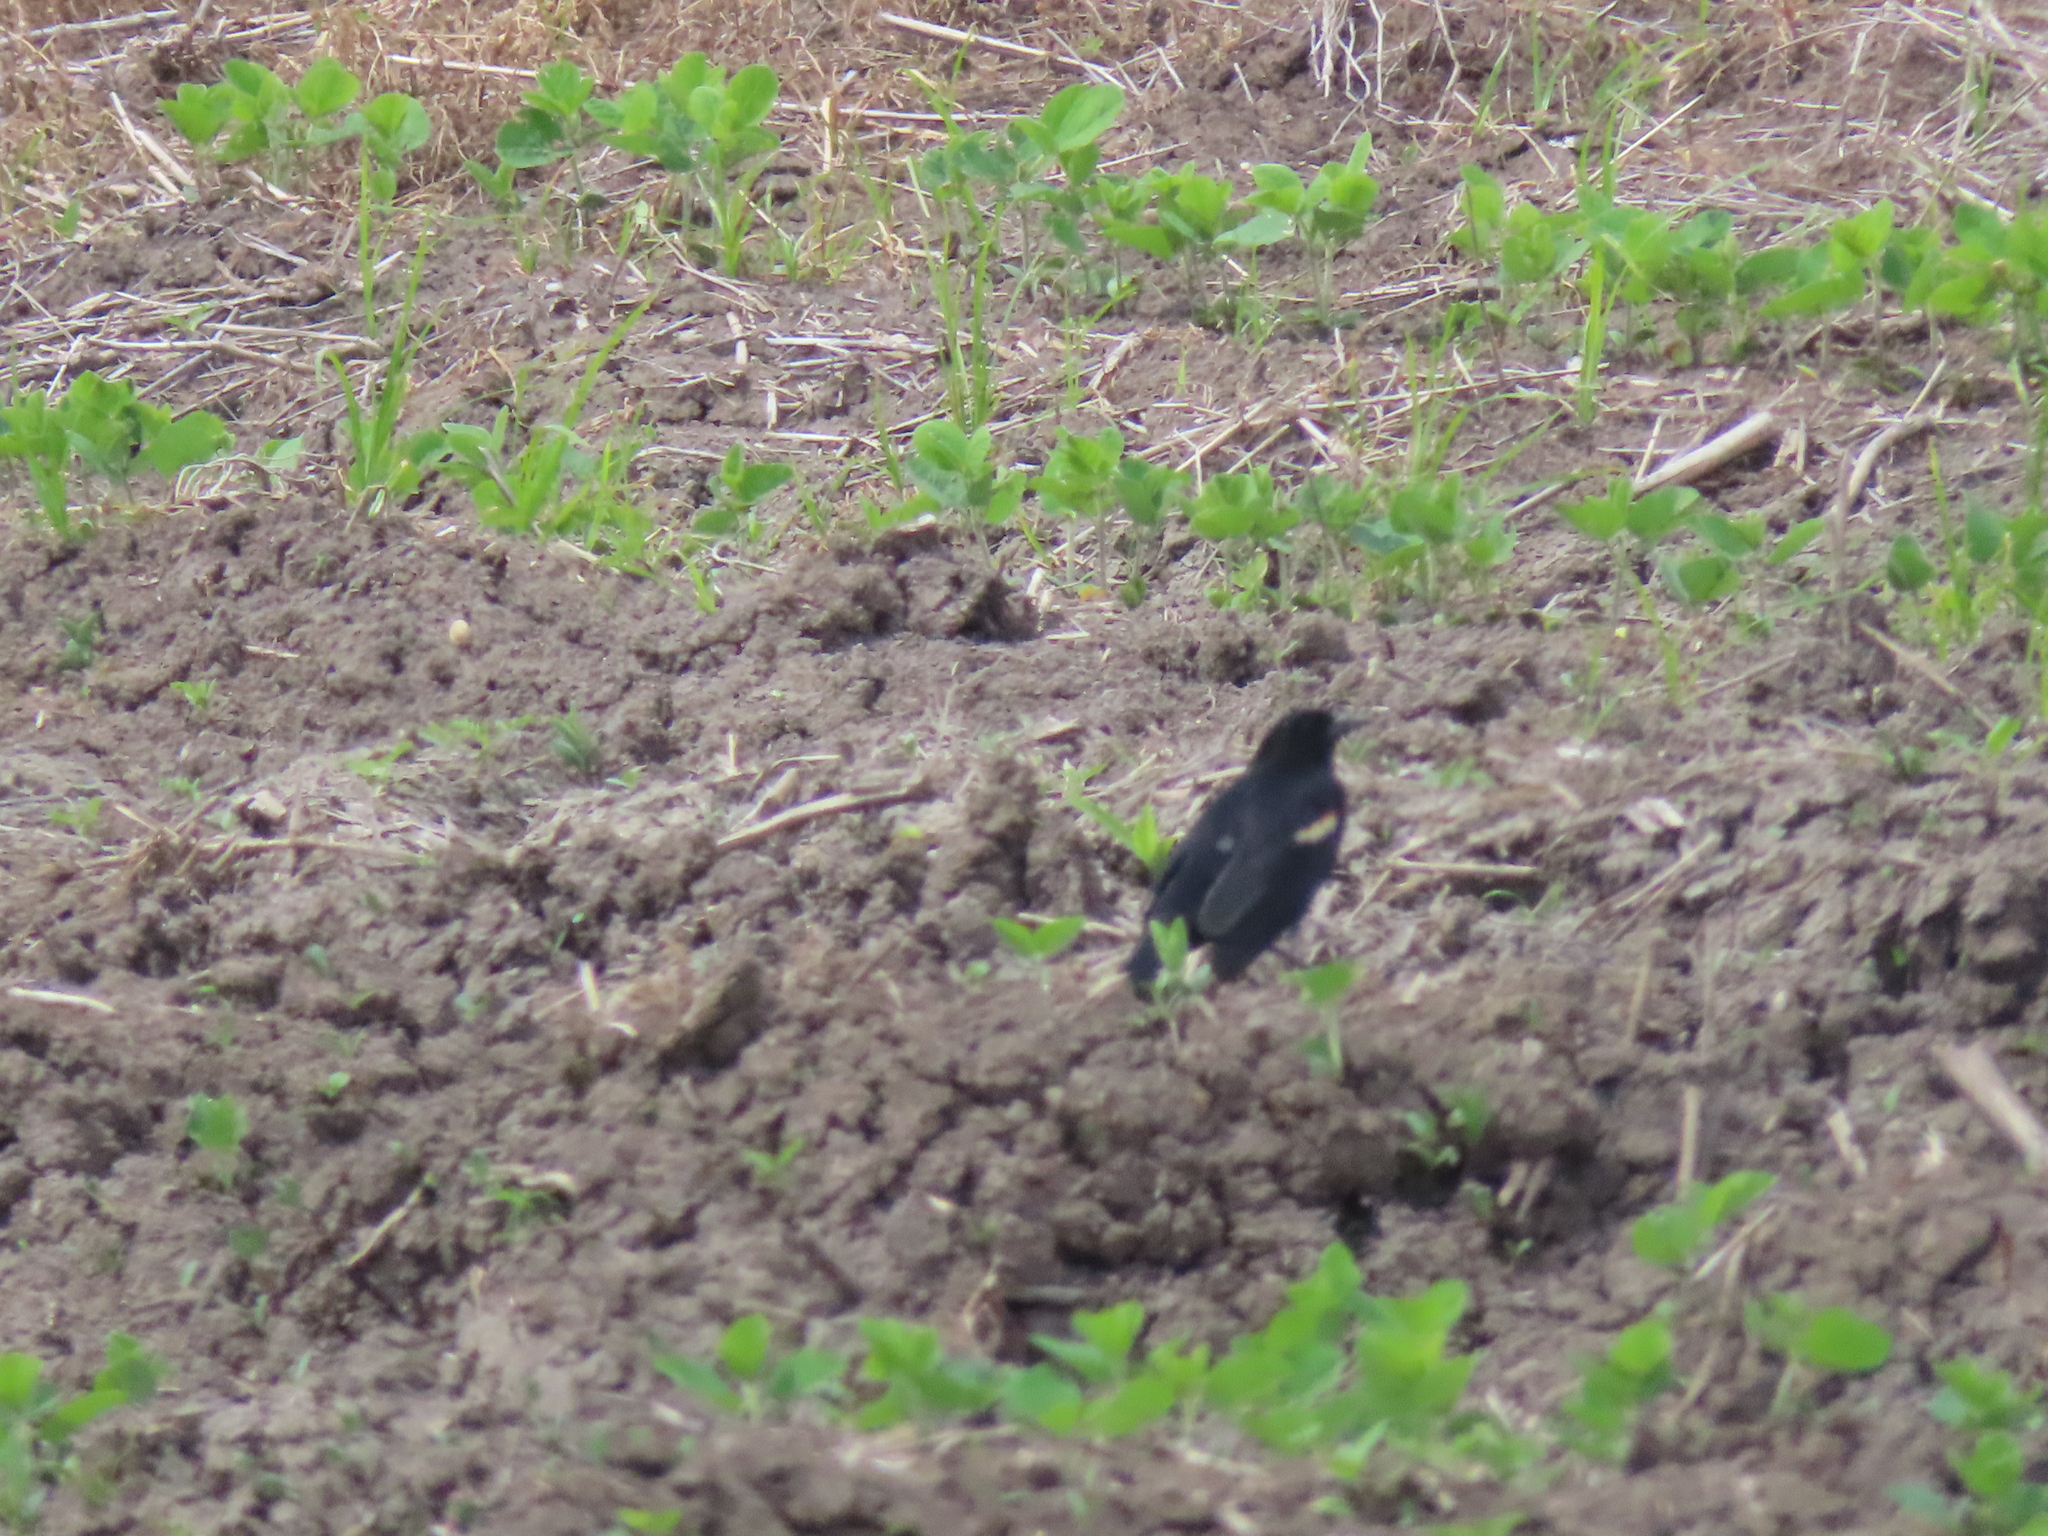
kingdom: Animalia
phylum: Chordata
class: Aves
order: Passeriformes
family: Icteridae
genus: Agelaius
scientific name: Agelaius phoeniceus
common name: Red-winged blackbird
